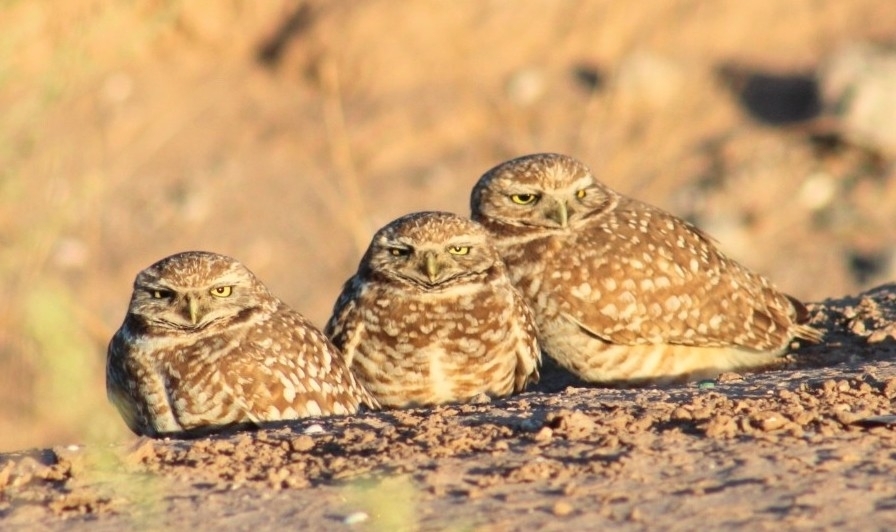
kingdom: Animalia
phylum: Chordata
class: Aves
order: Strigiformes
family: Strigidae
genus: Athene
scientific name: Athene cunicularia
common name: Burrowing owl
